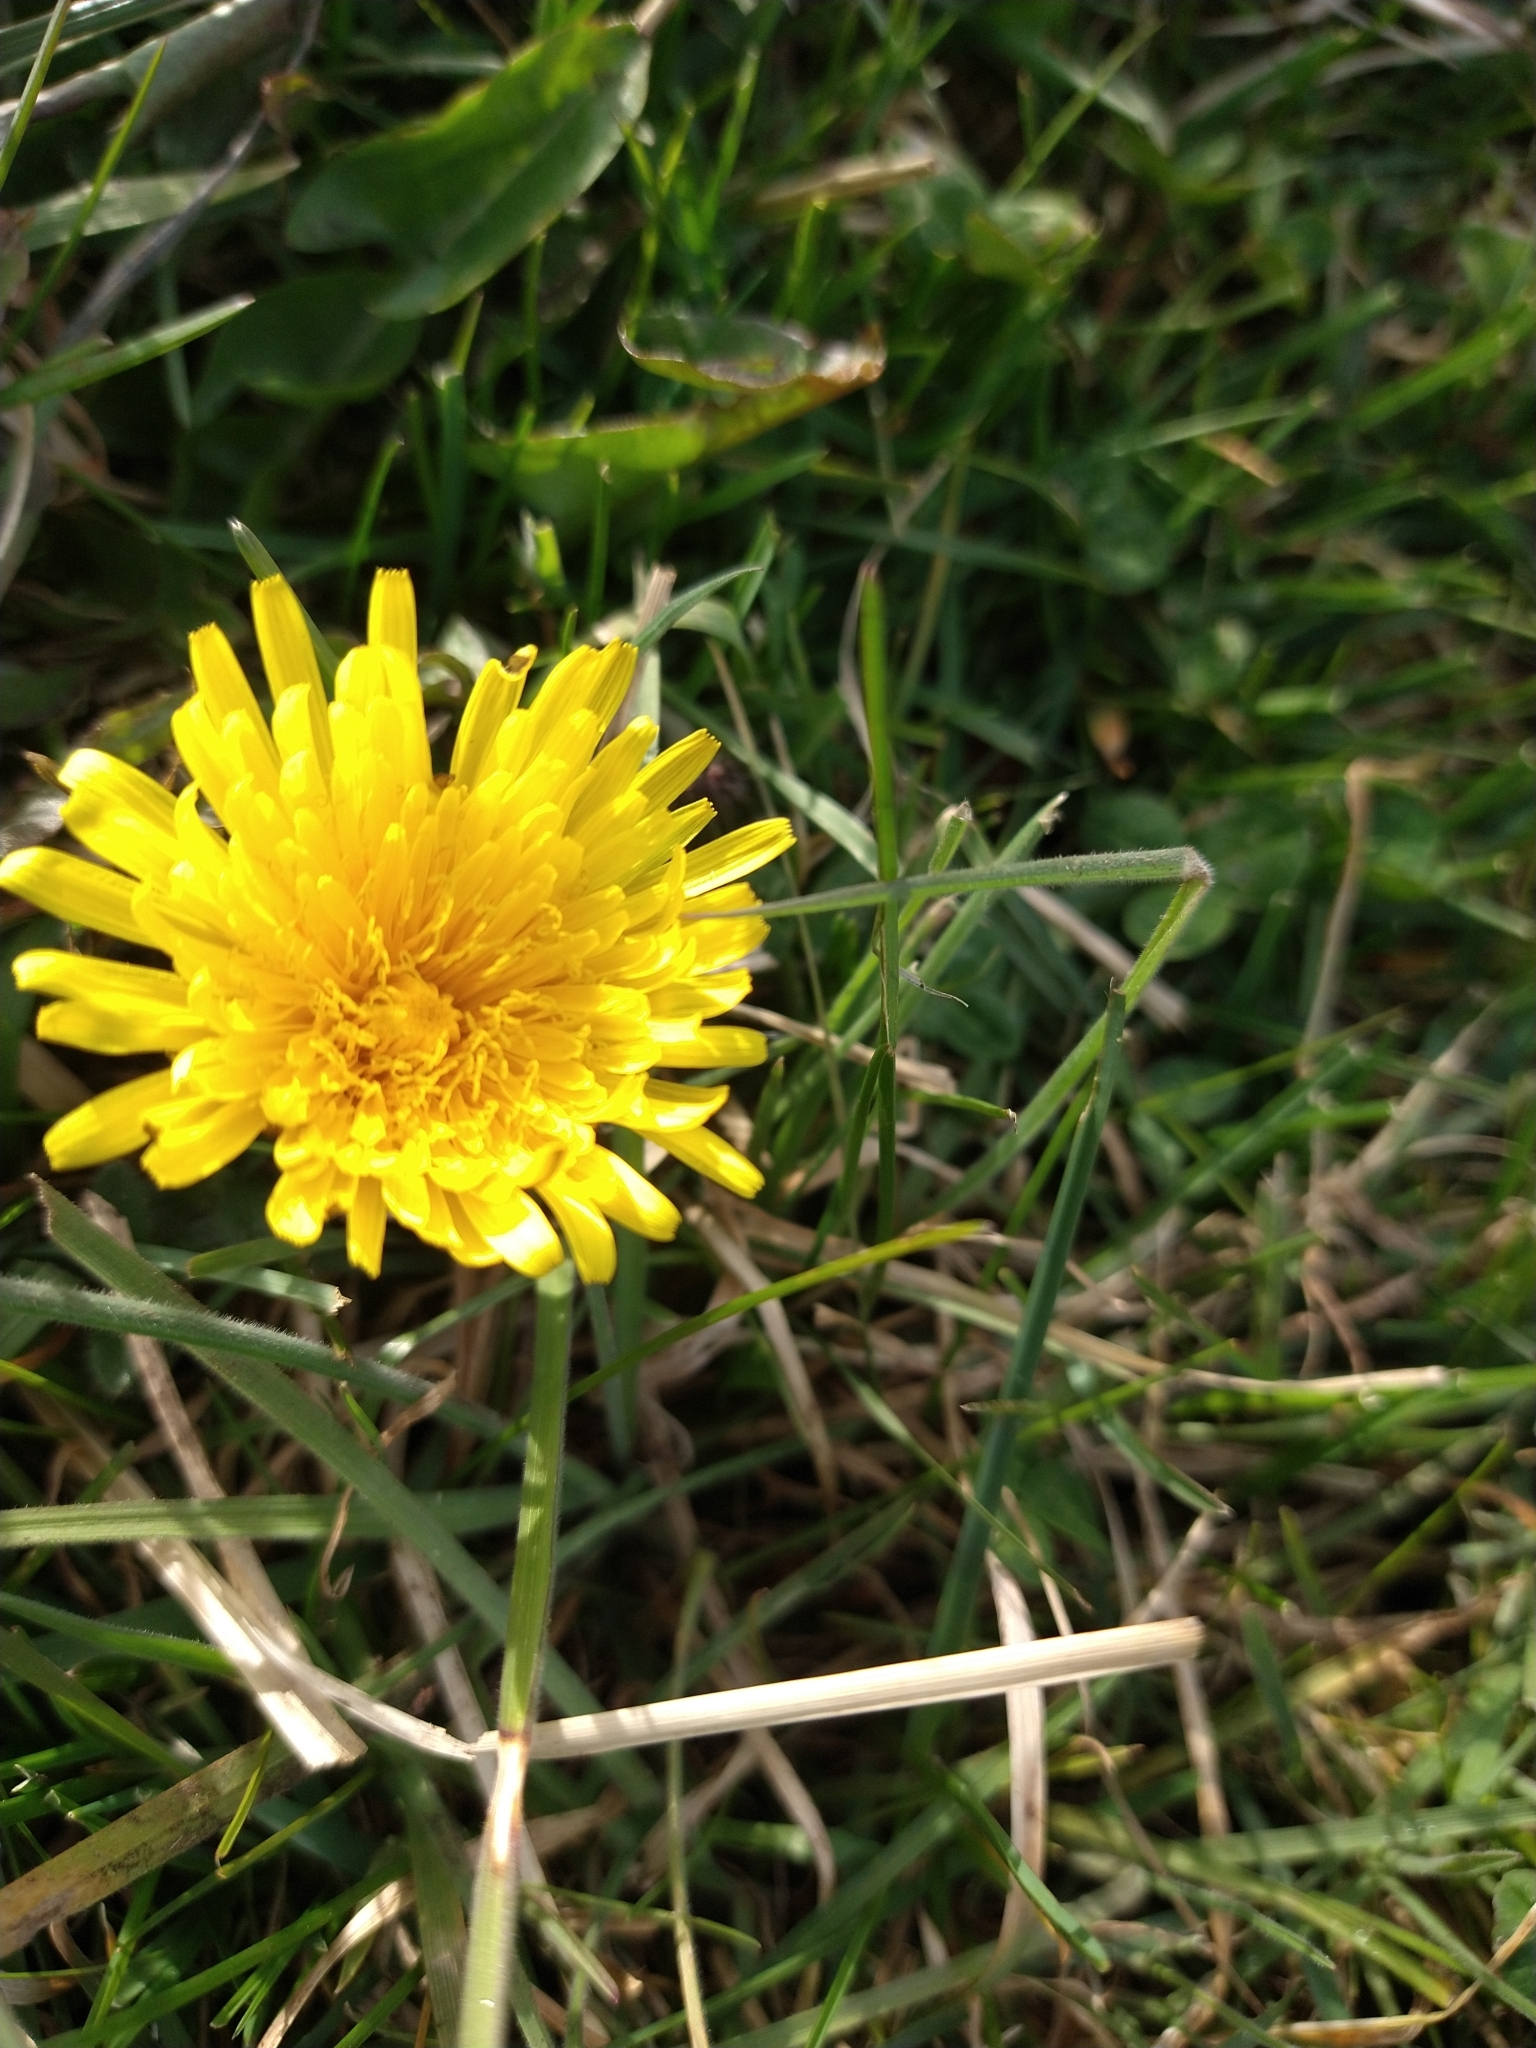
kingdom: Plantae
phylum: Tracheophyta
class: Magnoliopsida
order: Asterales
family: Asteraceae
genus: Taraxacum
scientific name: Taraxacum officinale
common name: Common dandelion
